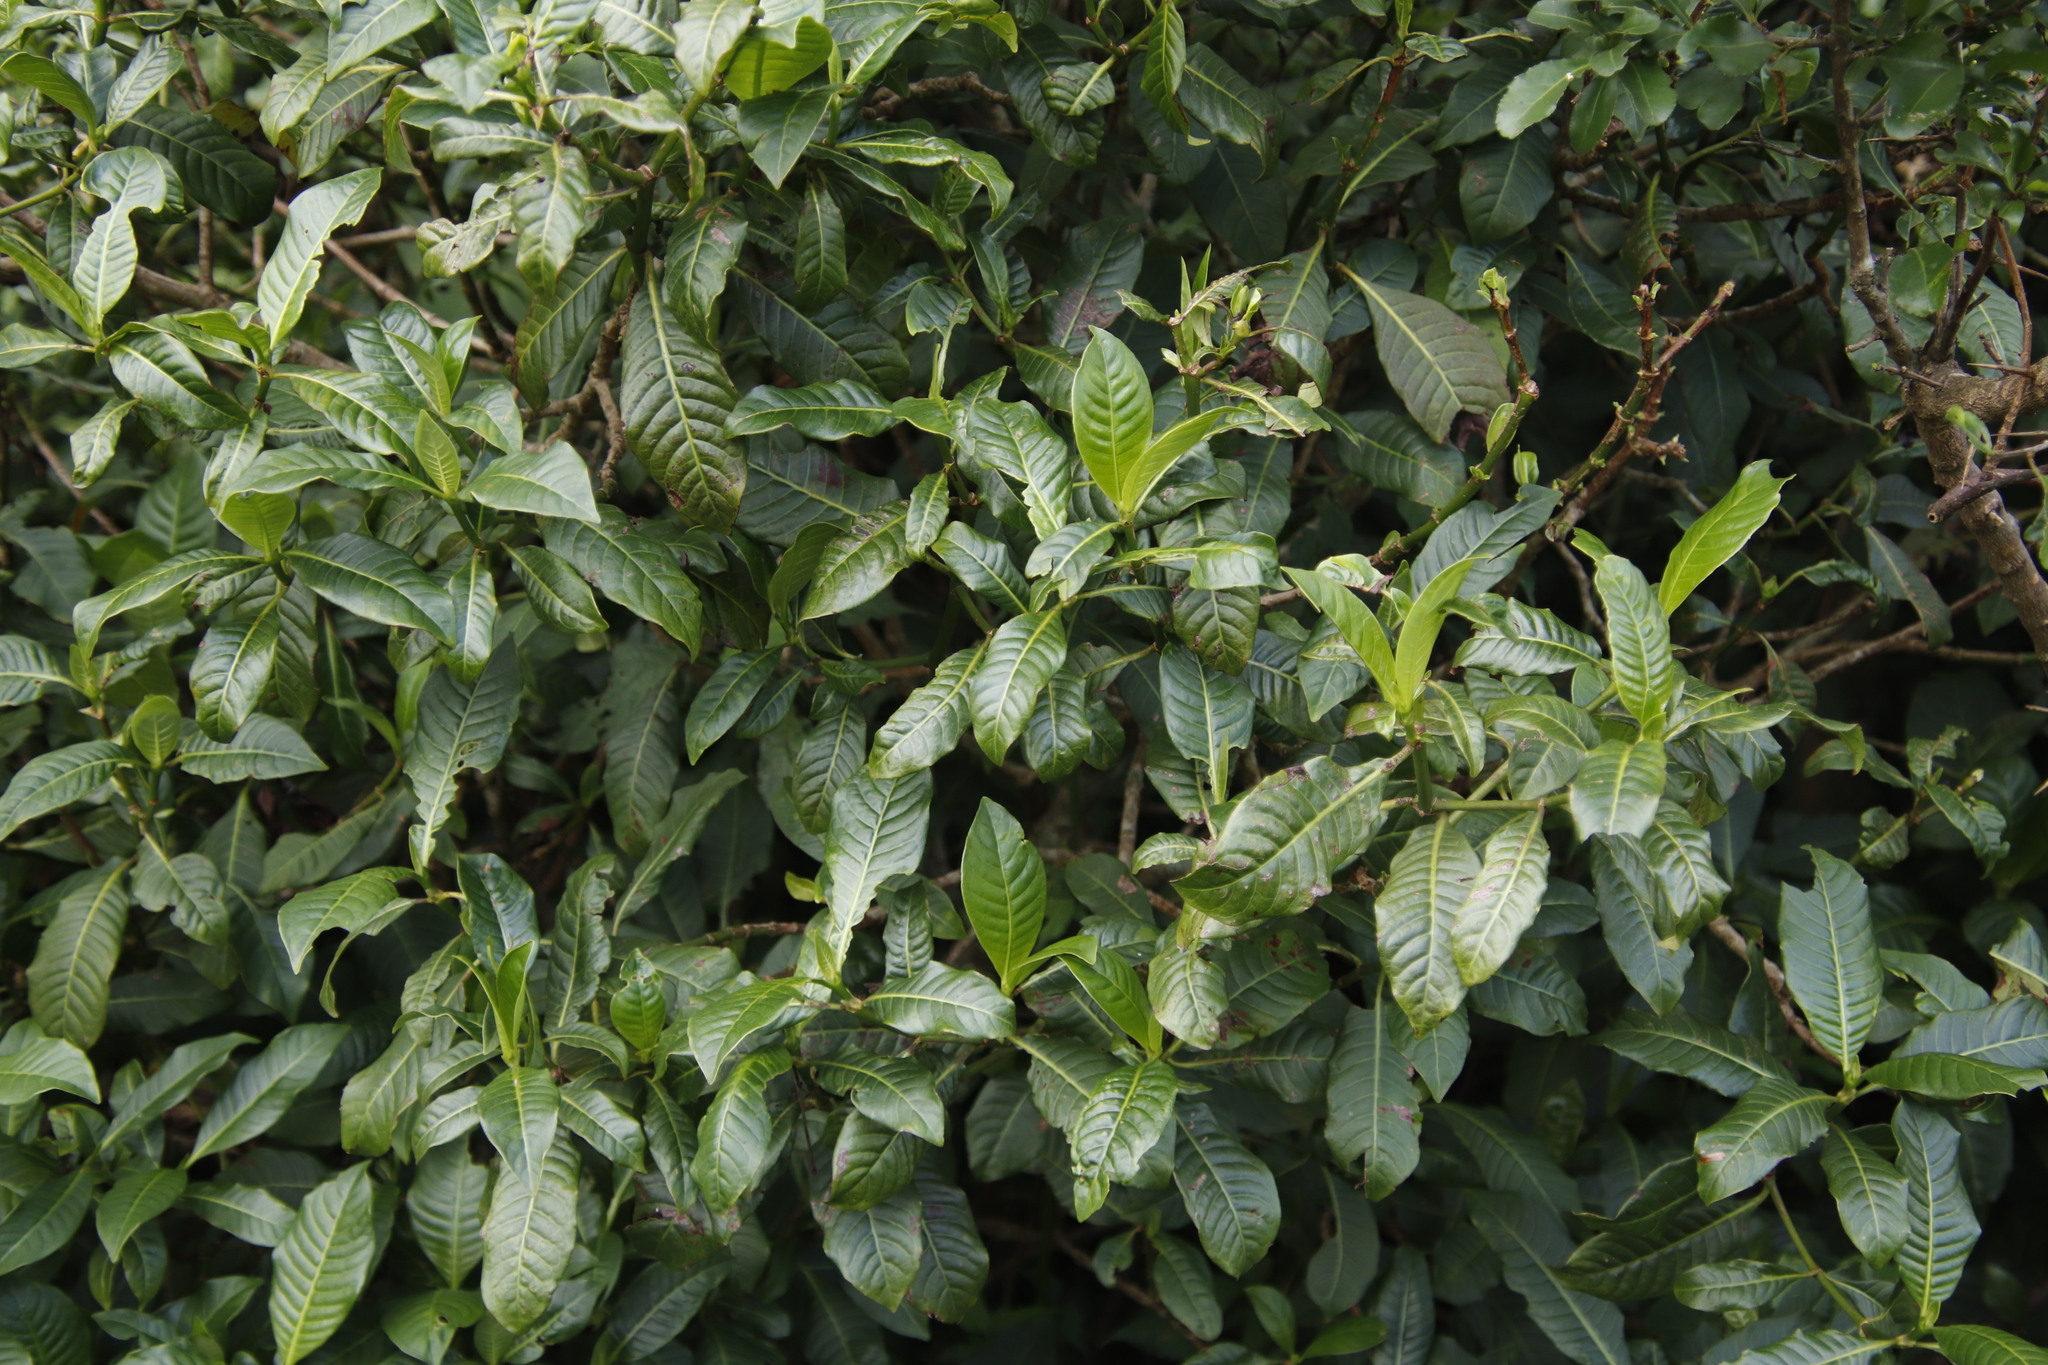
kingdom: Plantae
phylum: Tracheophyta
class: Magnoliopsida
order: Gentianales
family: Rubiaceae
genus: Psychotria
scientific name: Psychotria zombamontana
